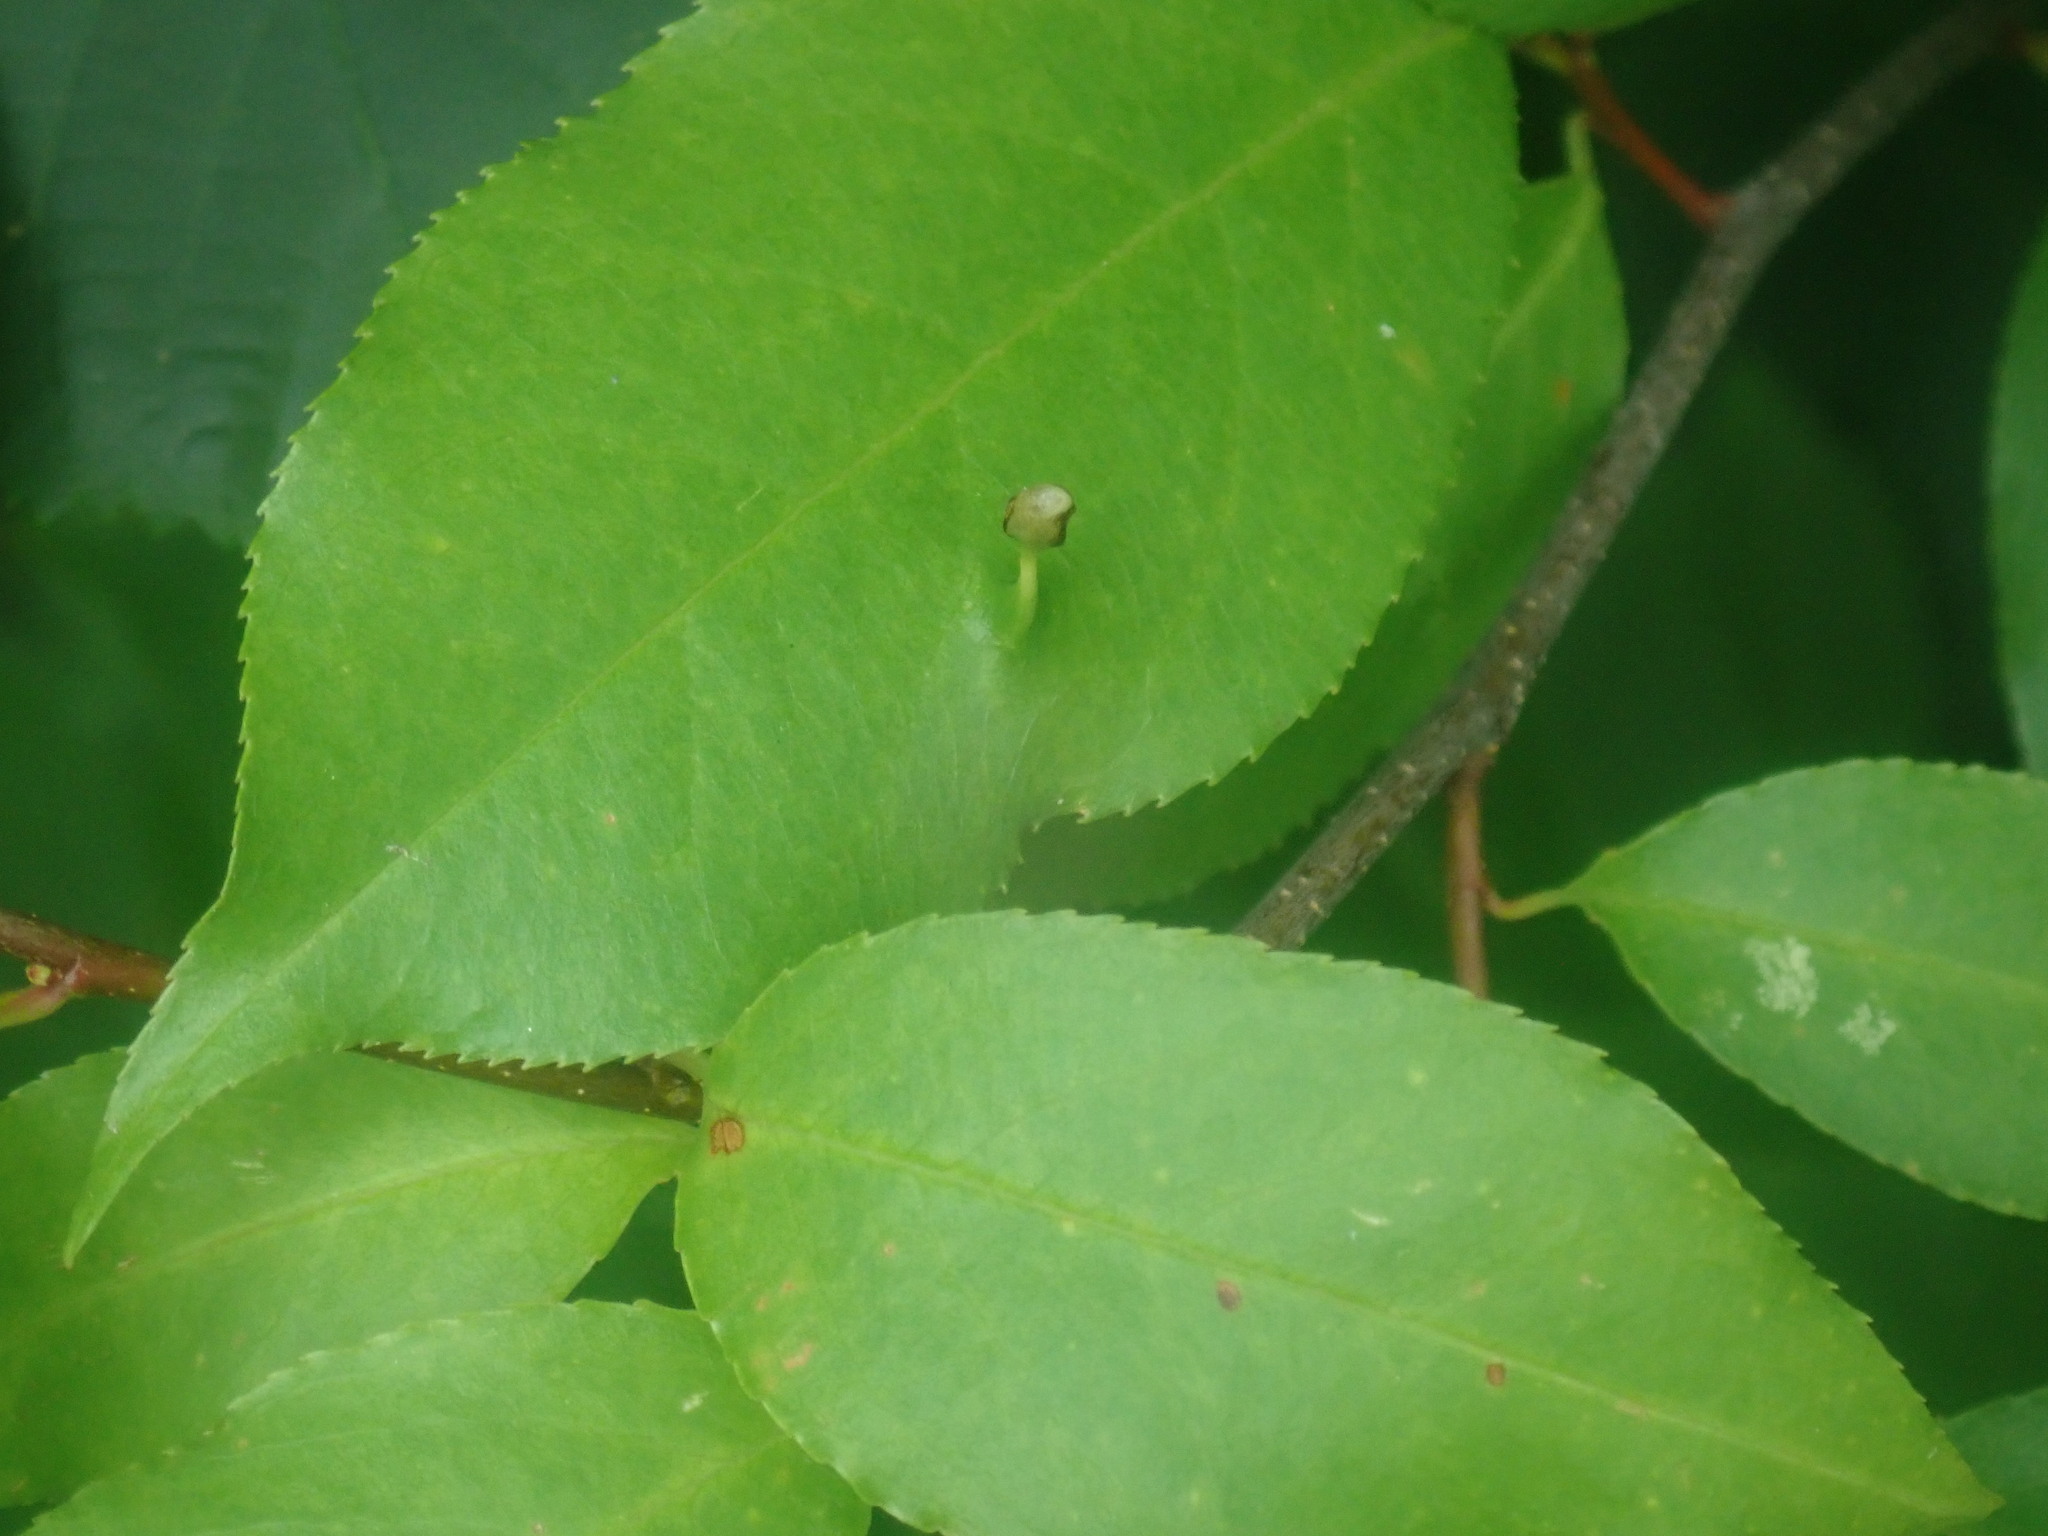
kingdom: Animalia
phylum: Arthropoda
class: Arachnida
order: Trombidiformes
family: Eriophyidae
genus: Eriophyes
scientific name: Eriophyes
